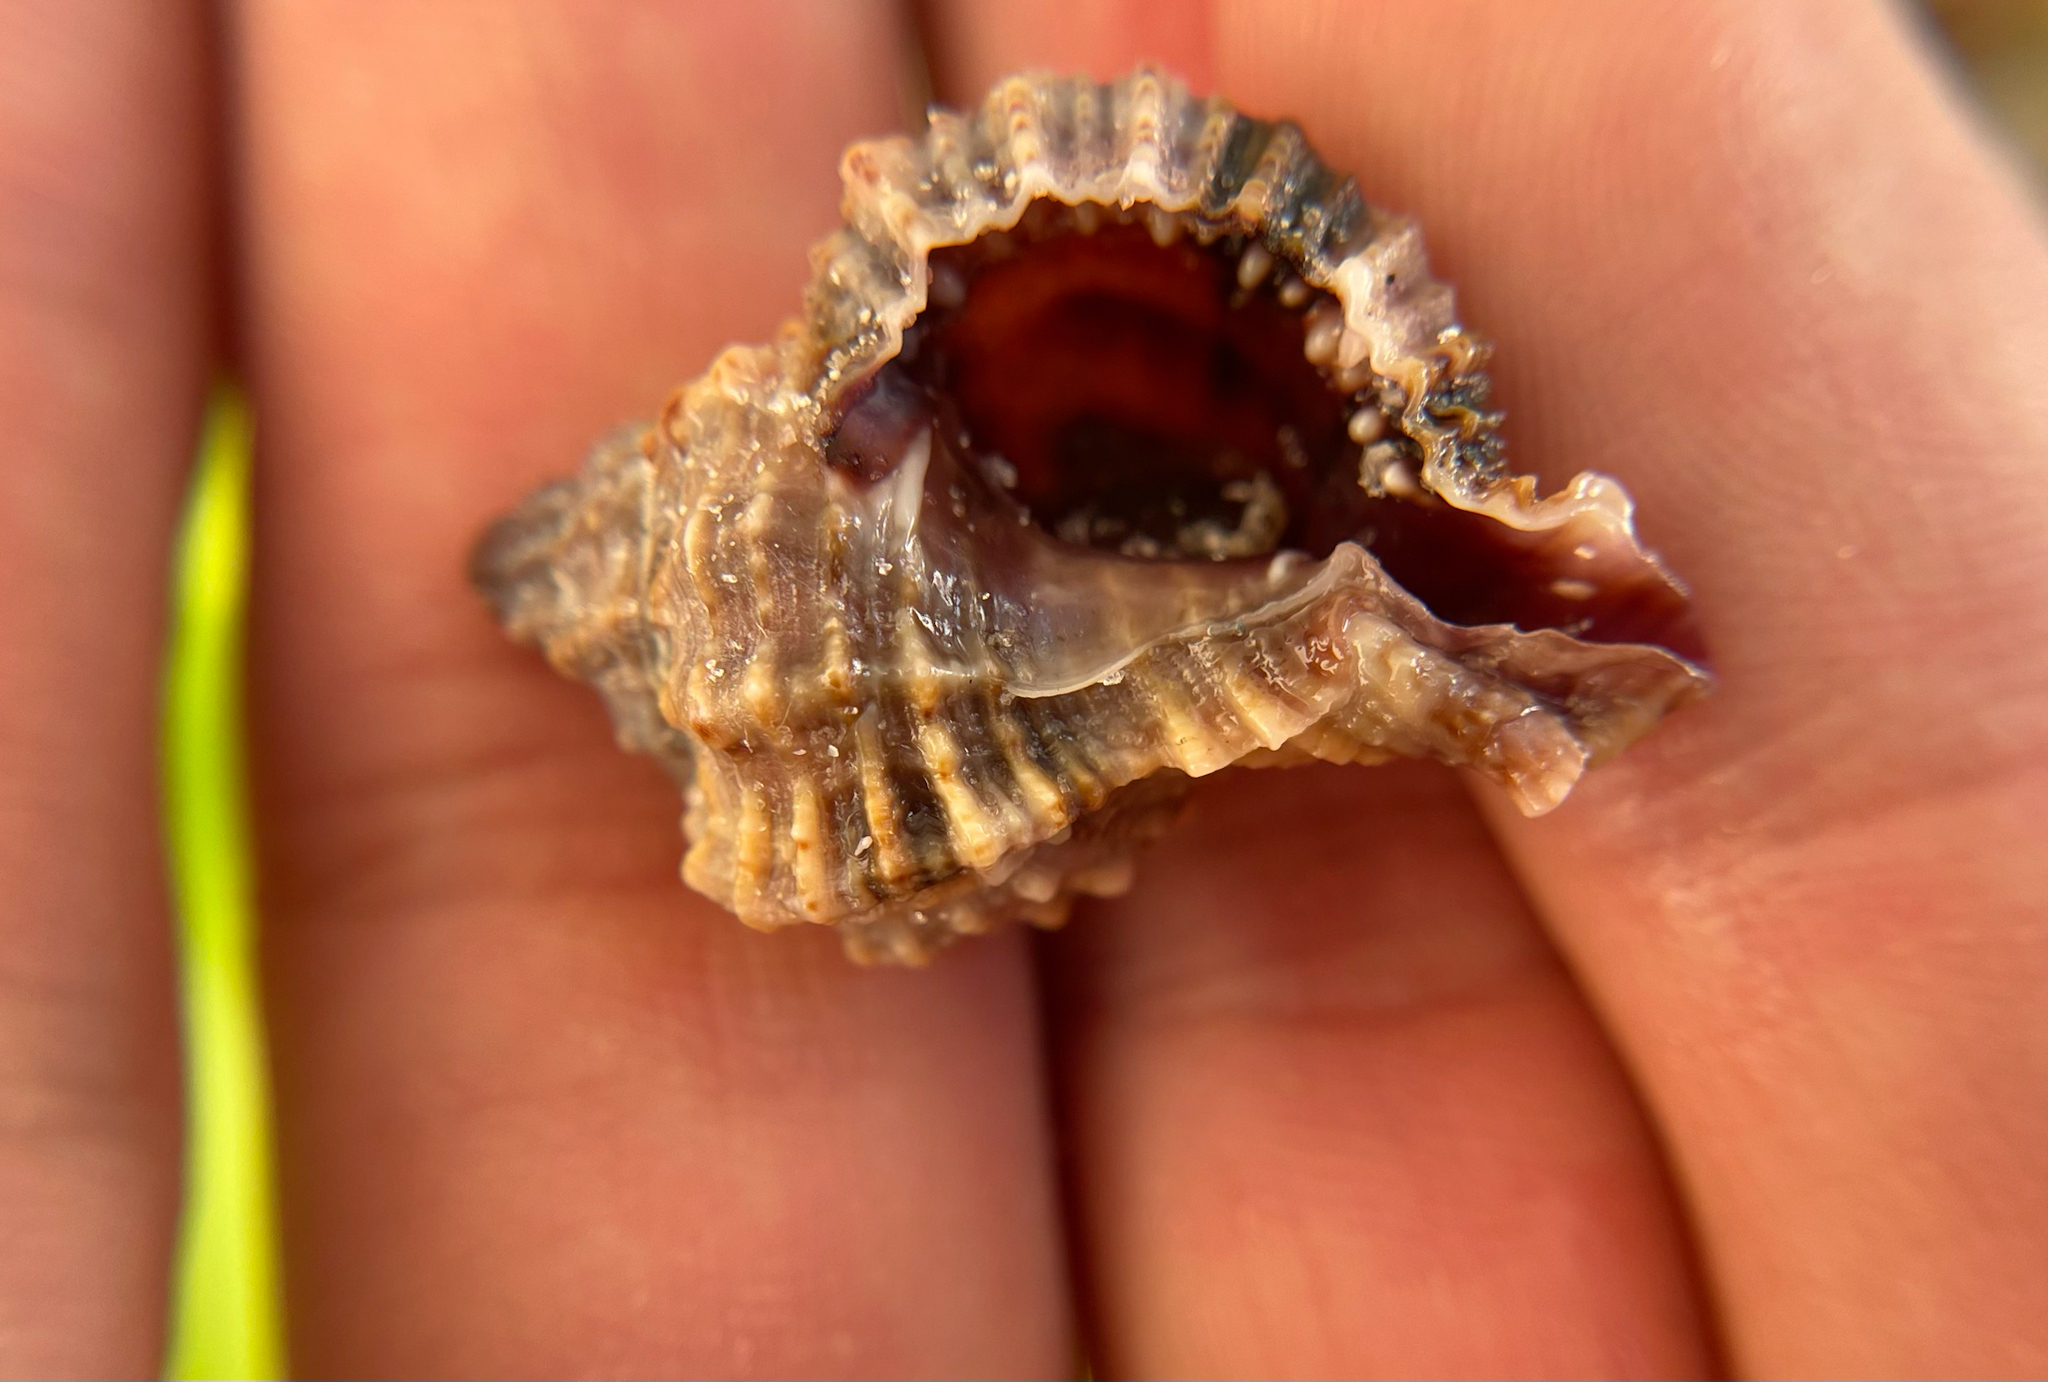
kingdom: Animalia
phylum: Mollusca
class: Gastropoda
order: Neogastropoda
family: Muricidae
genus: Phyllonotus
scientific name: Phyllonotus pomum
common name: Apple murex
